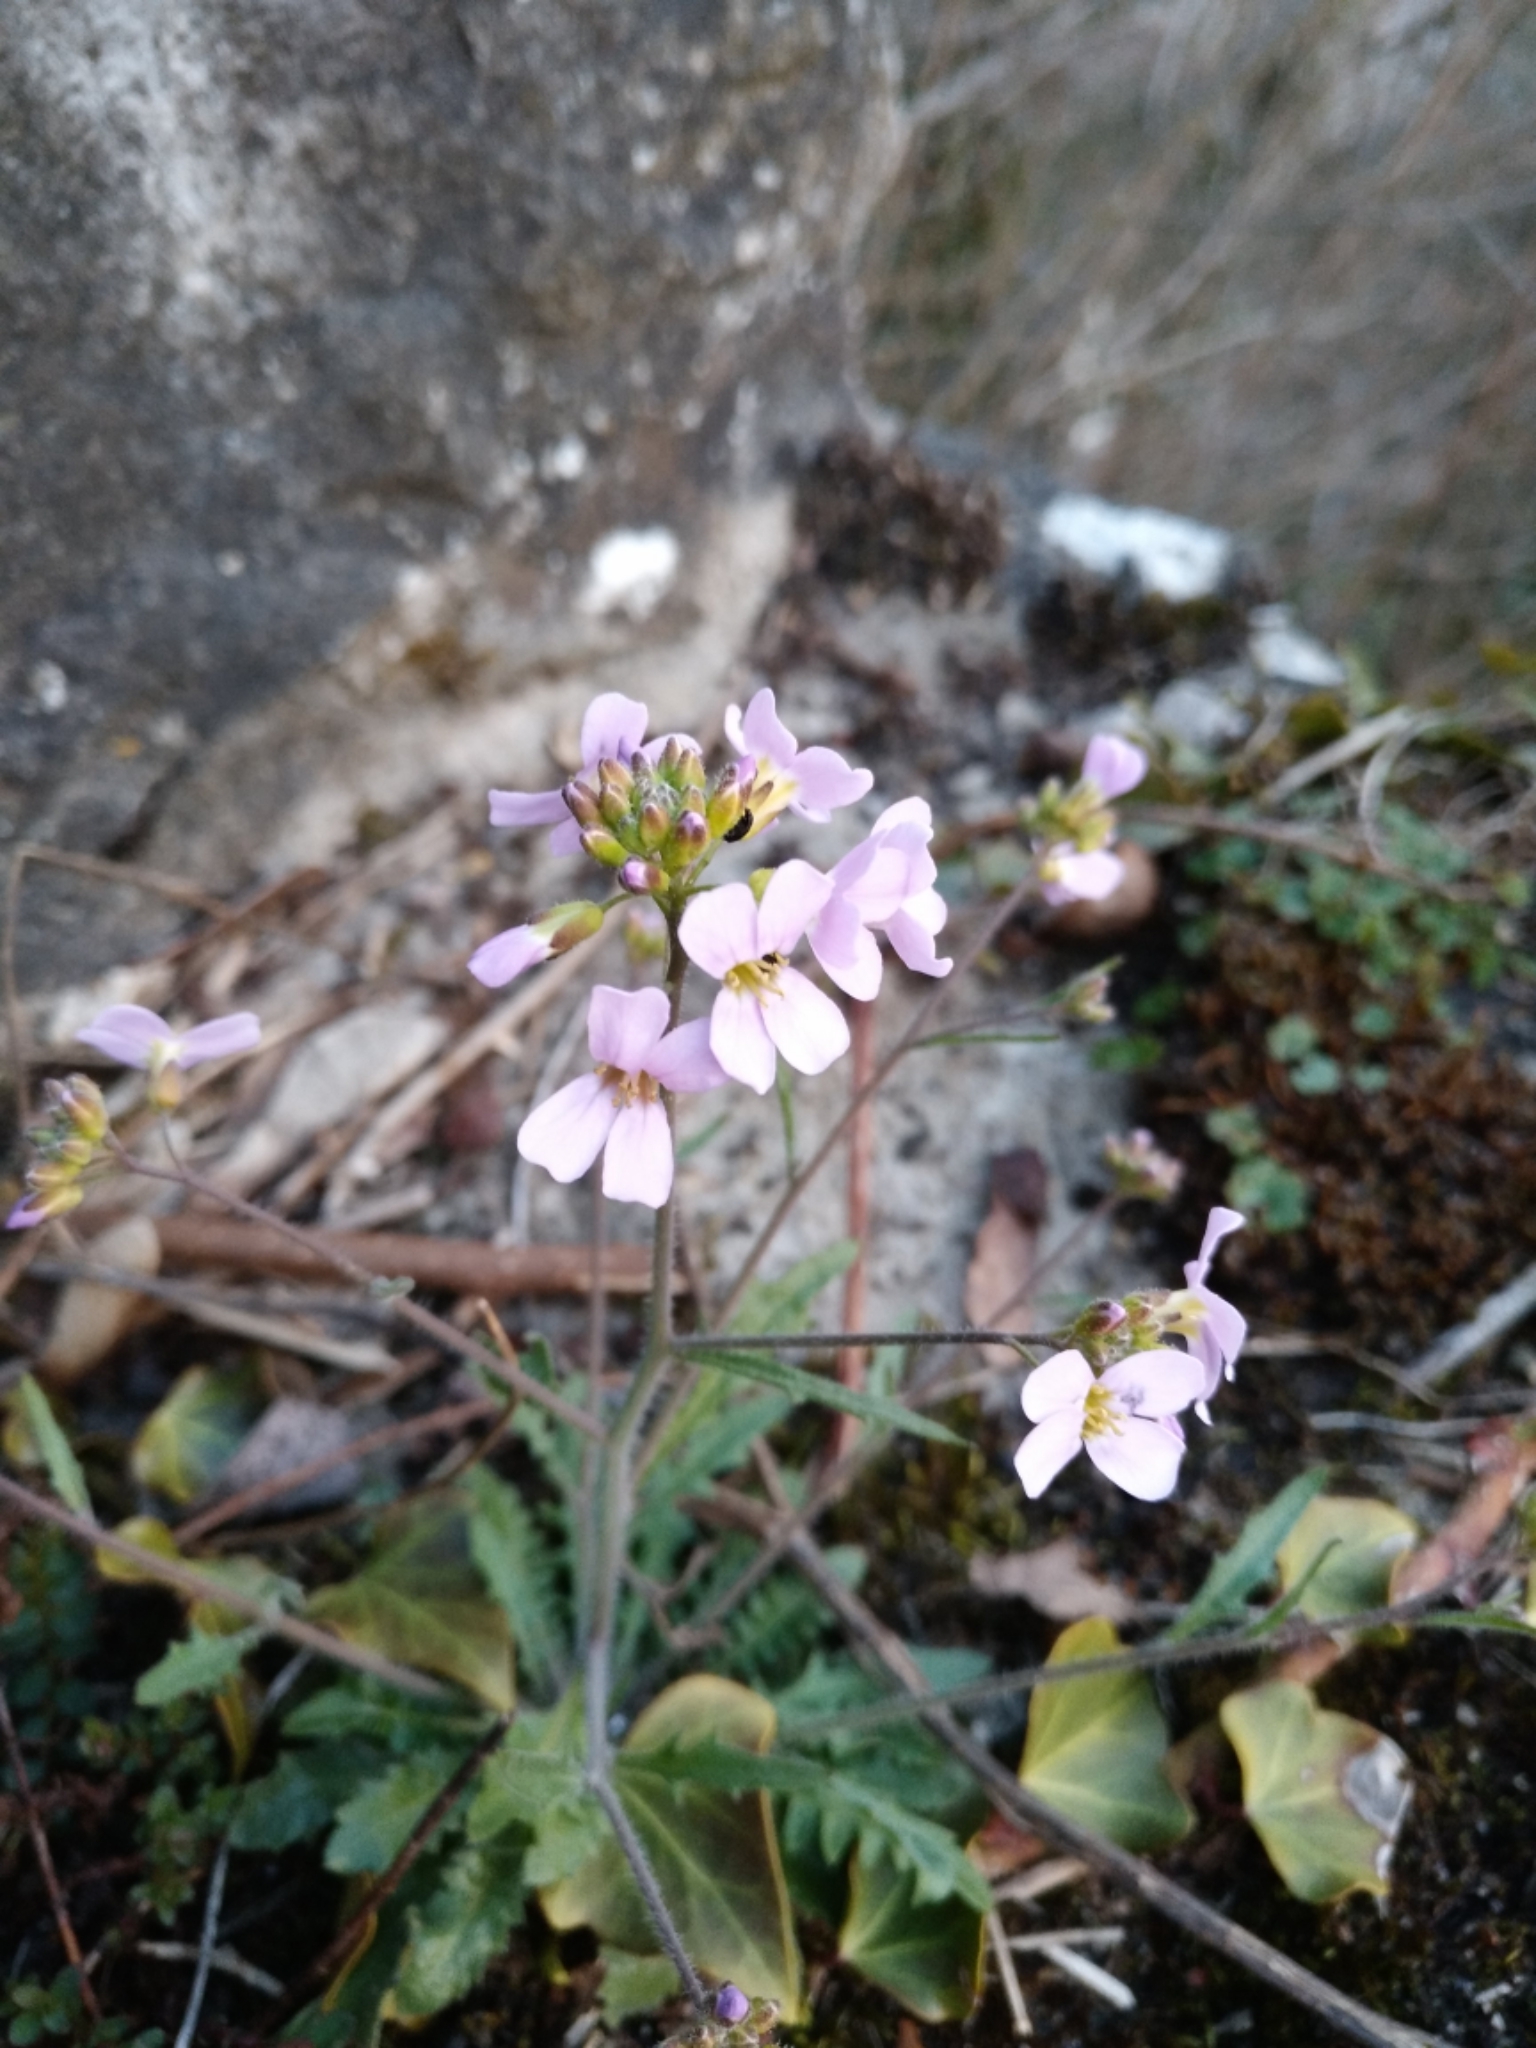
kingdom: Plantae
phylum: Tracheophyta
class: Magnoliopsida
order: Brassicales
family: Brassicaceae
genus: Arabidopsis
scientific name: Arabidopsis arenosa
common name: Sand rock-cress
